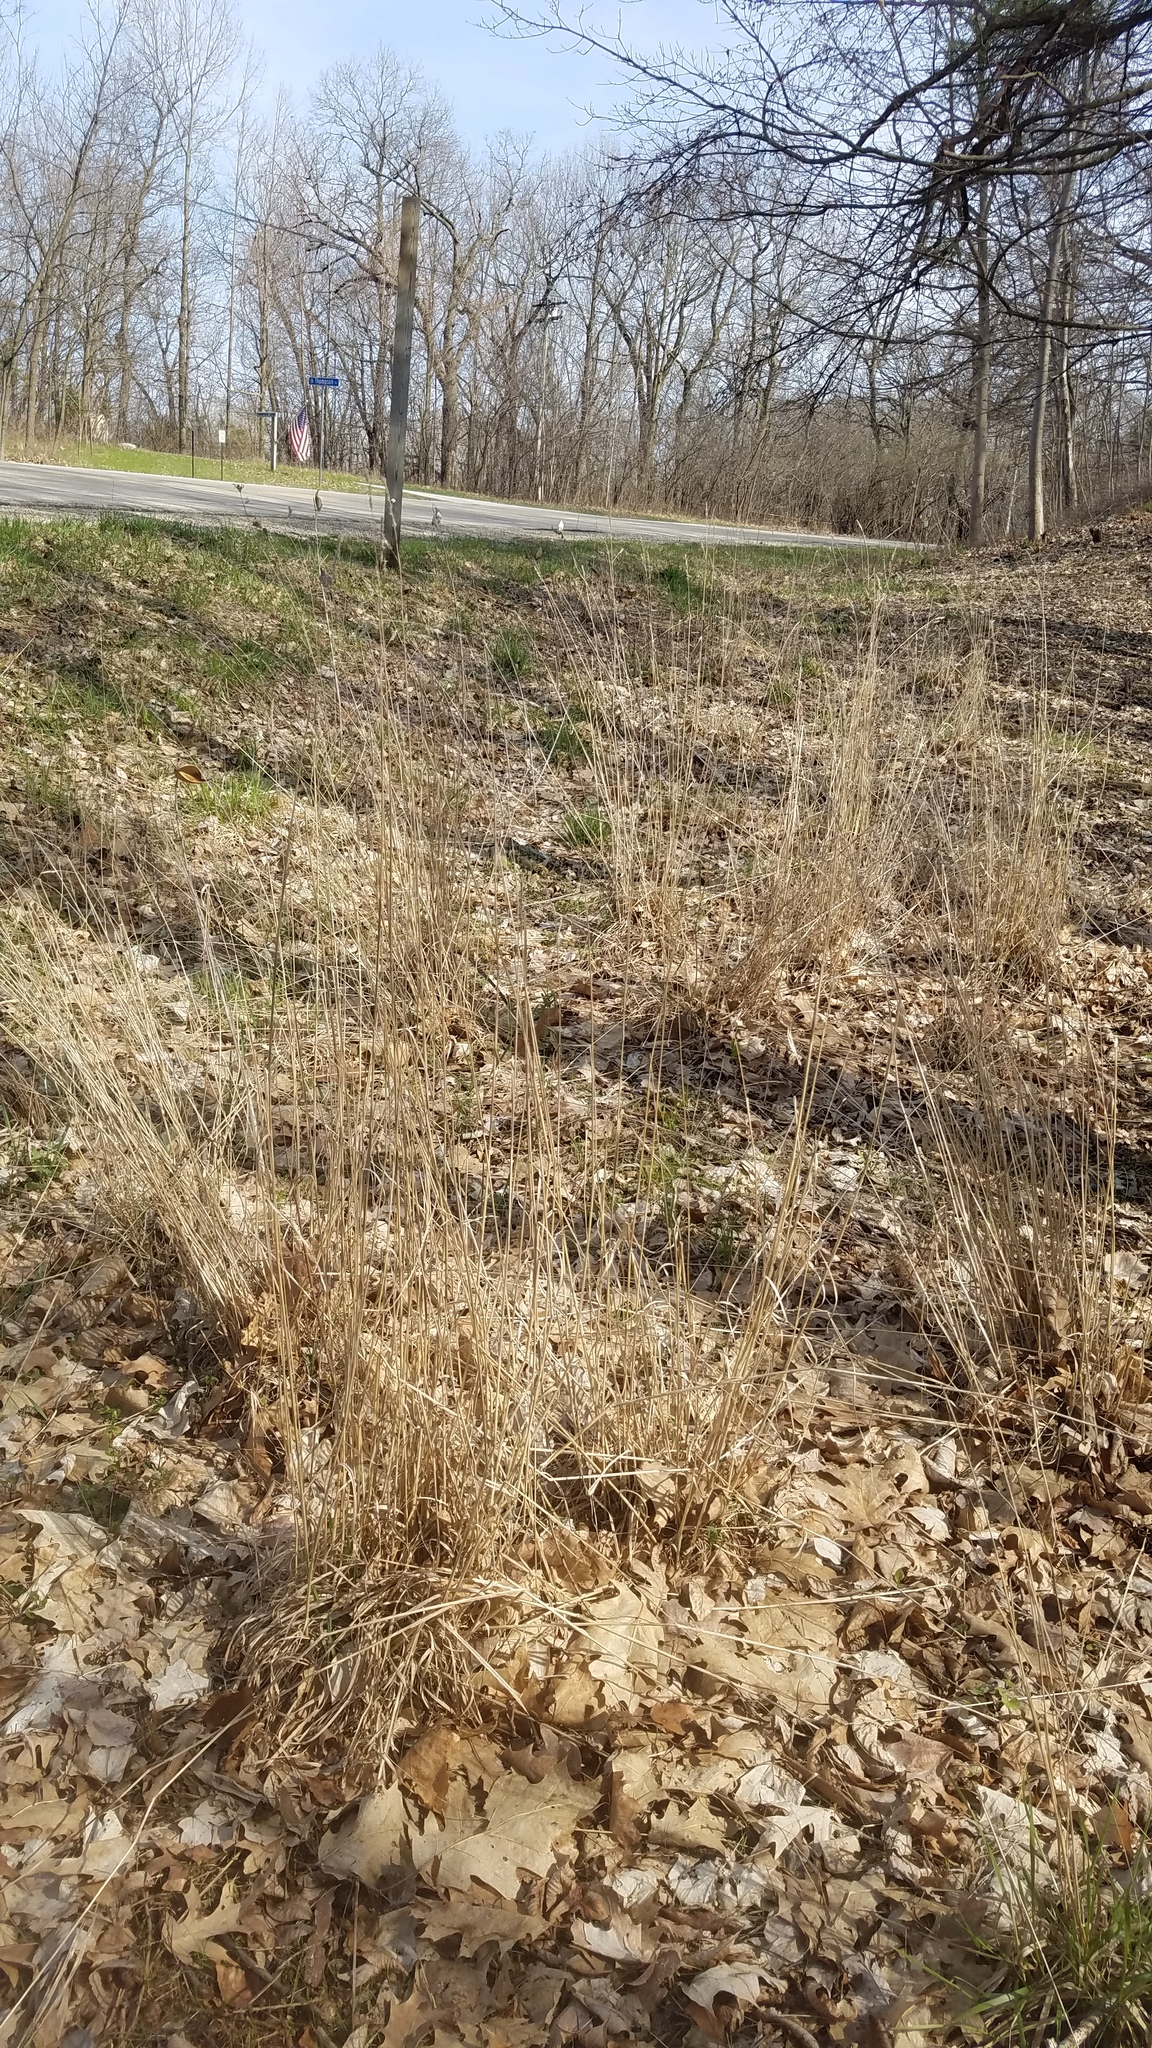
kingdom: Plantae
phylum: Tracheophyta
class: Liliopsida
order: Poales
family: Poaceae
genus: Dactylis
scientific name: Dactylis glomerata
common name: Orchardgrass
